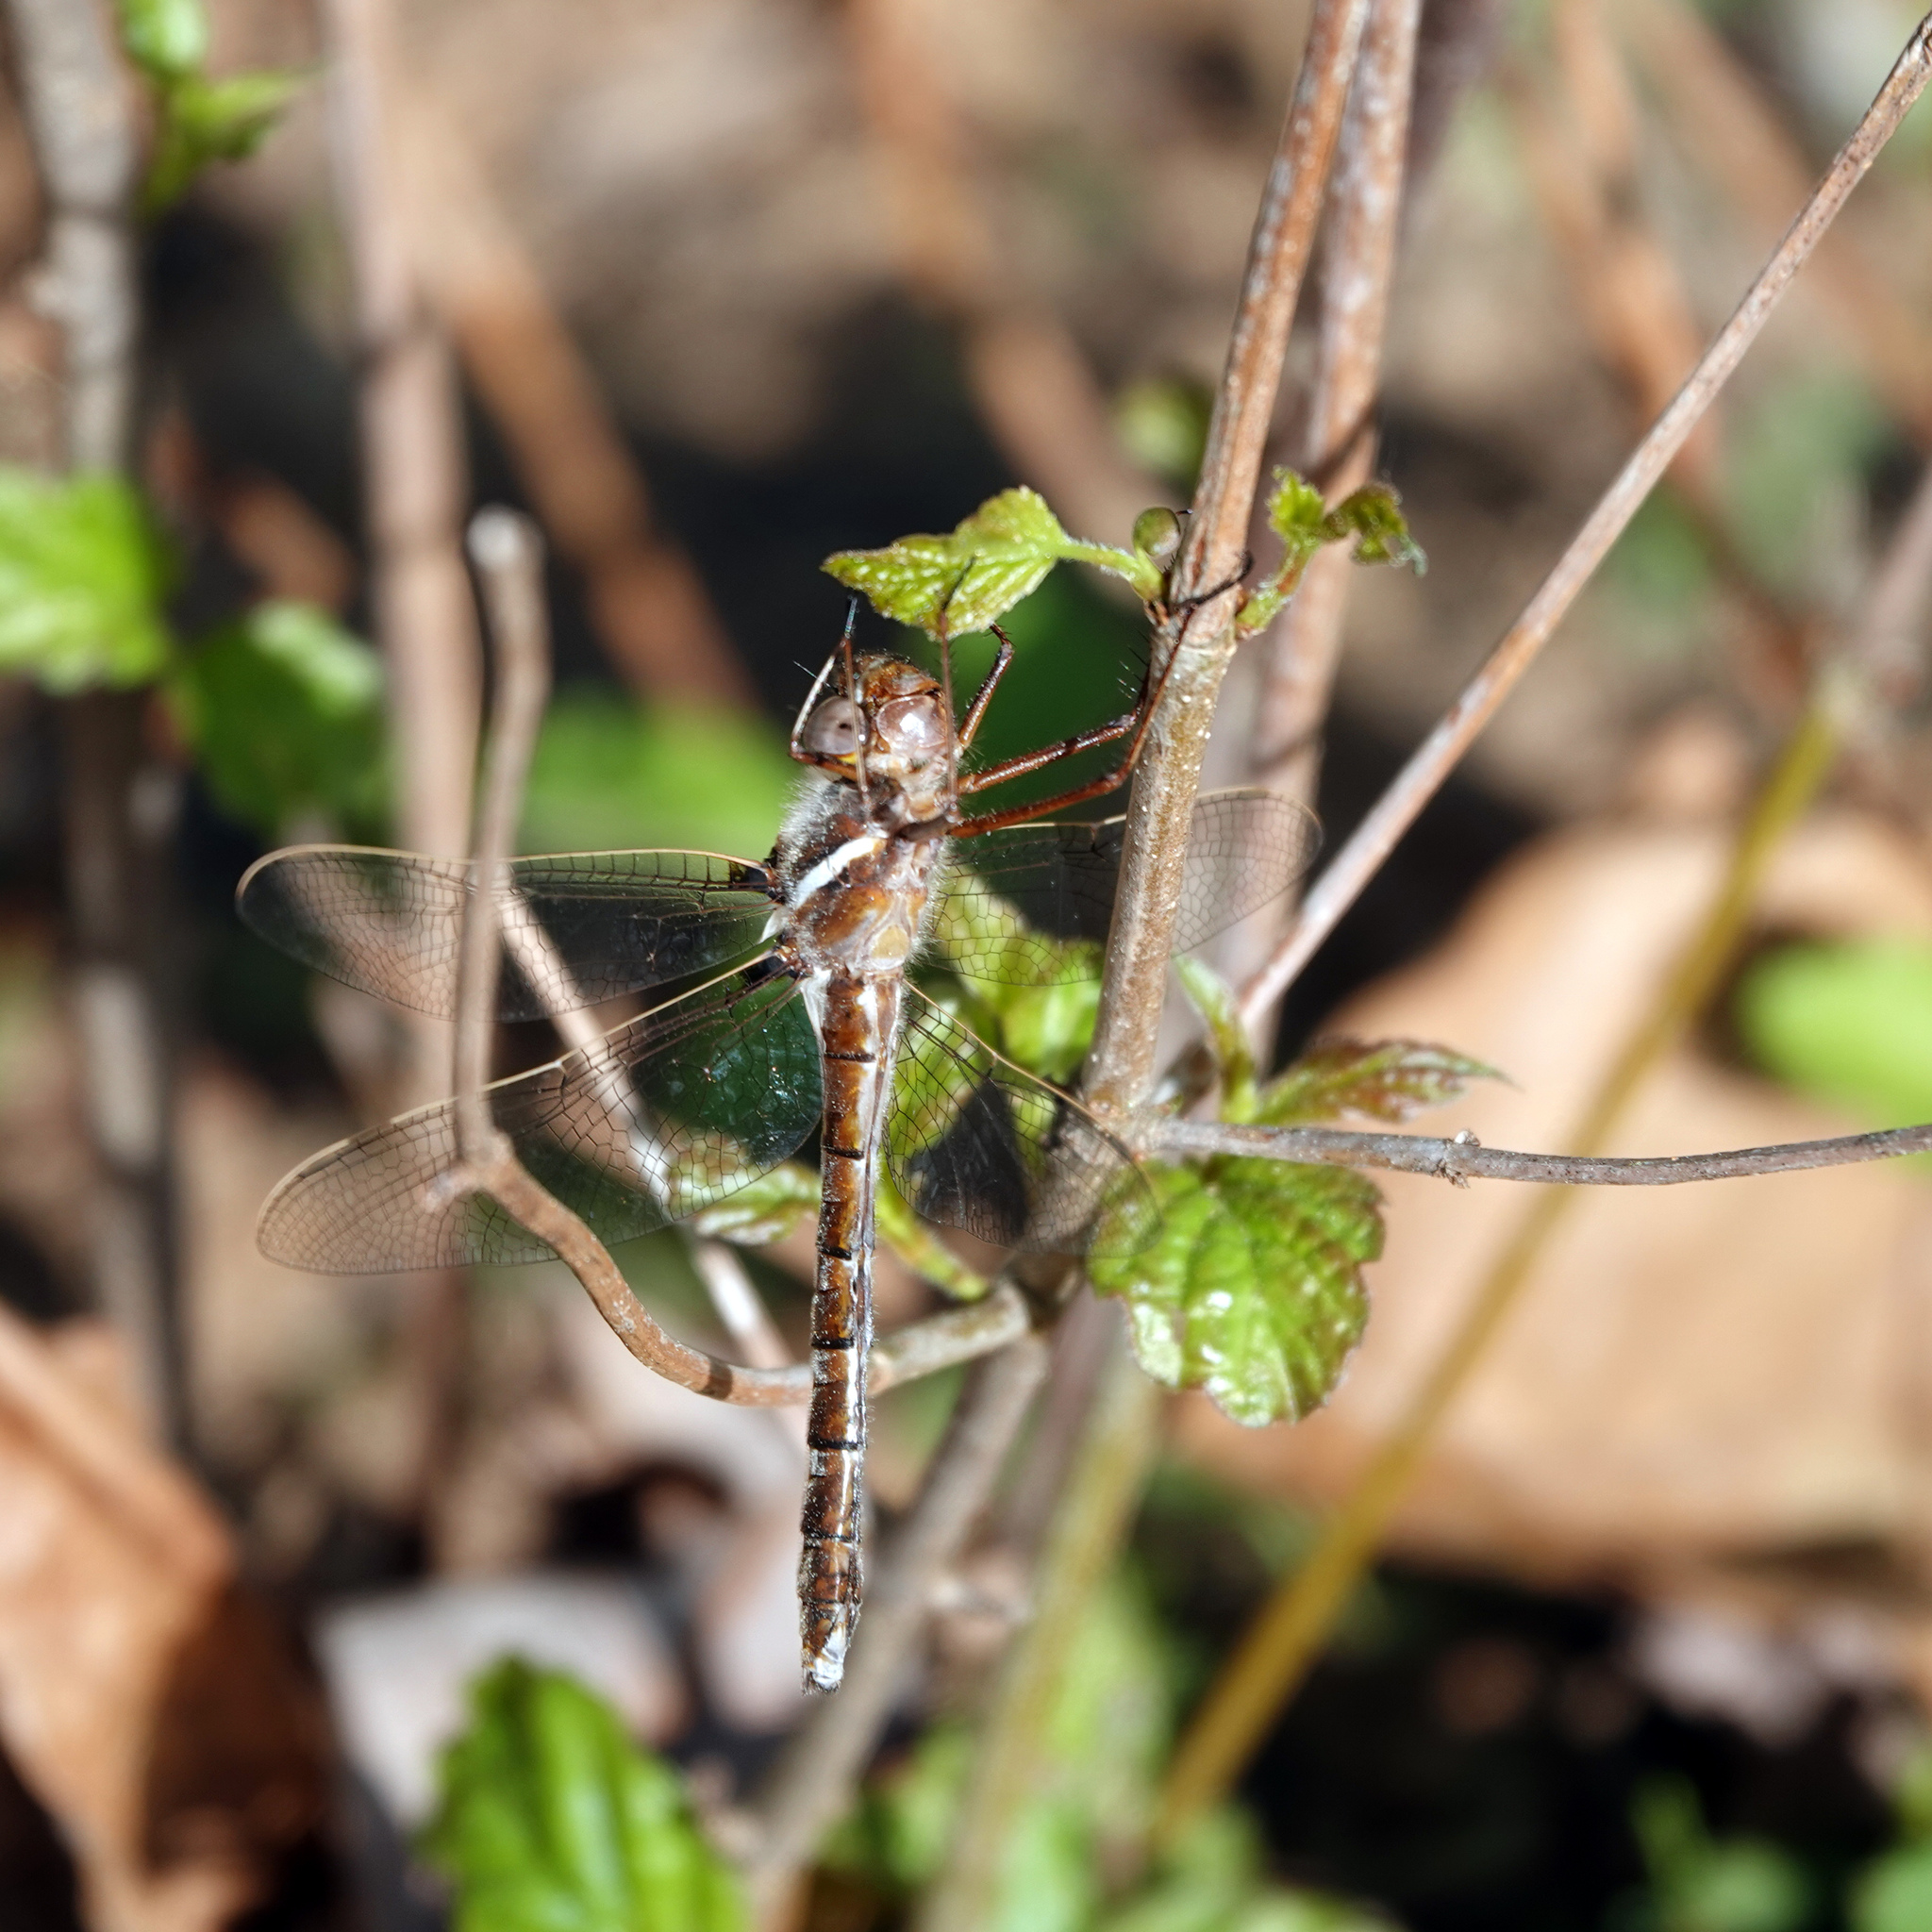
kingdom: Animalia
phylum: Arthropoda
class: Insecta
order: Odonata
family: Macromiidae
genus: Didymops
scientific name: Didymops transversa
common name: Stream cruiser
